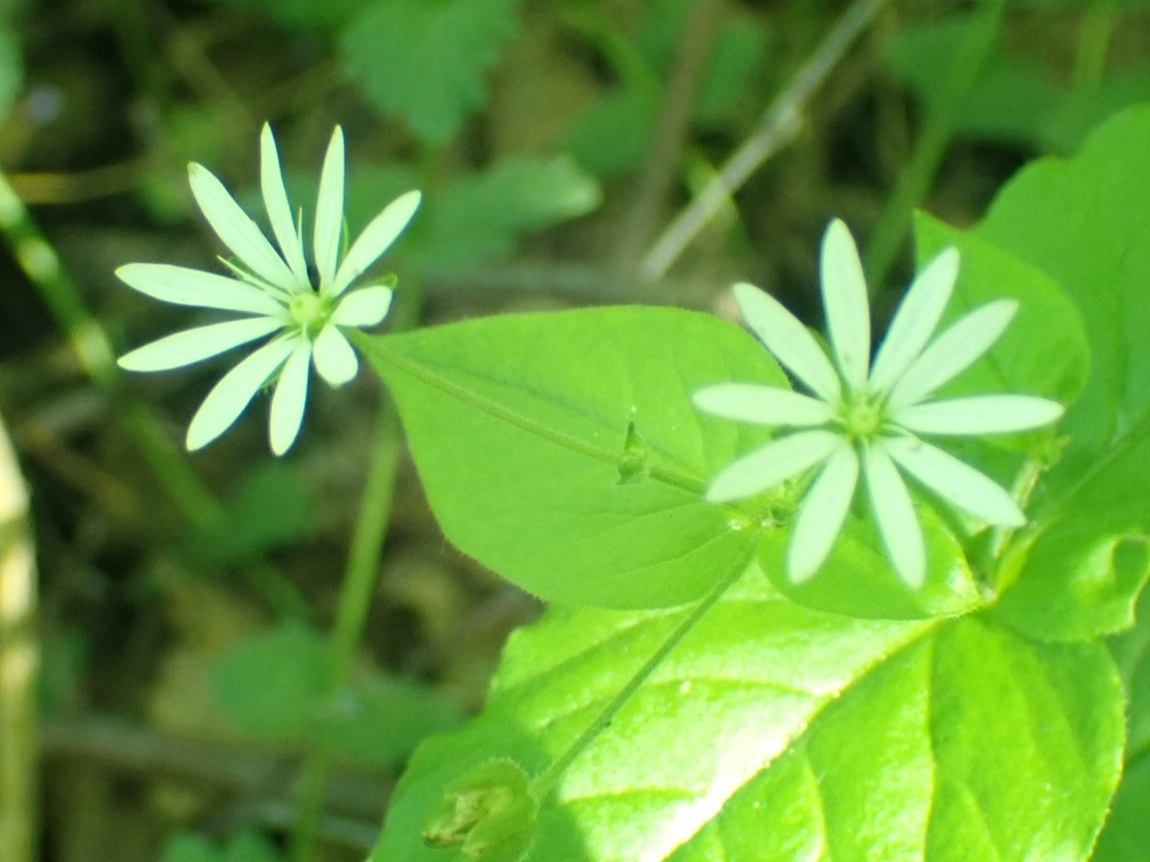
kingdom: Plantae
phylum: Tracheophyta
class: Magnoliopsida
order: Caryophyllales
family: Caryophyllaceae
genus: Stellaria
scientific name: Stellaria bungeana
